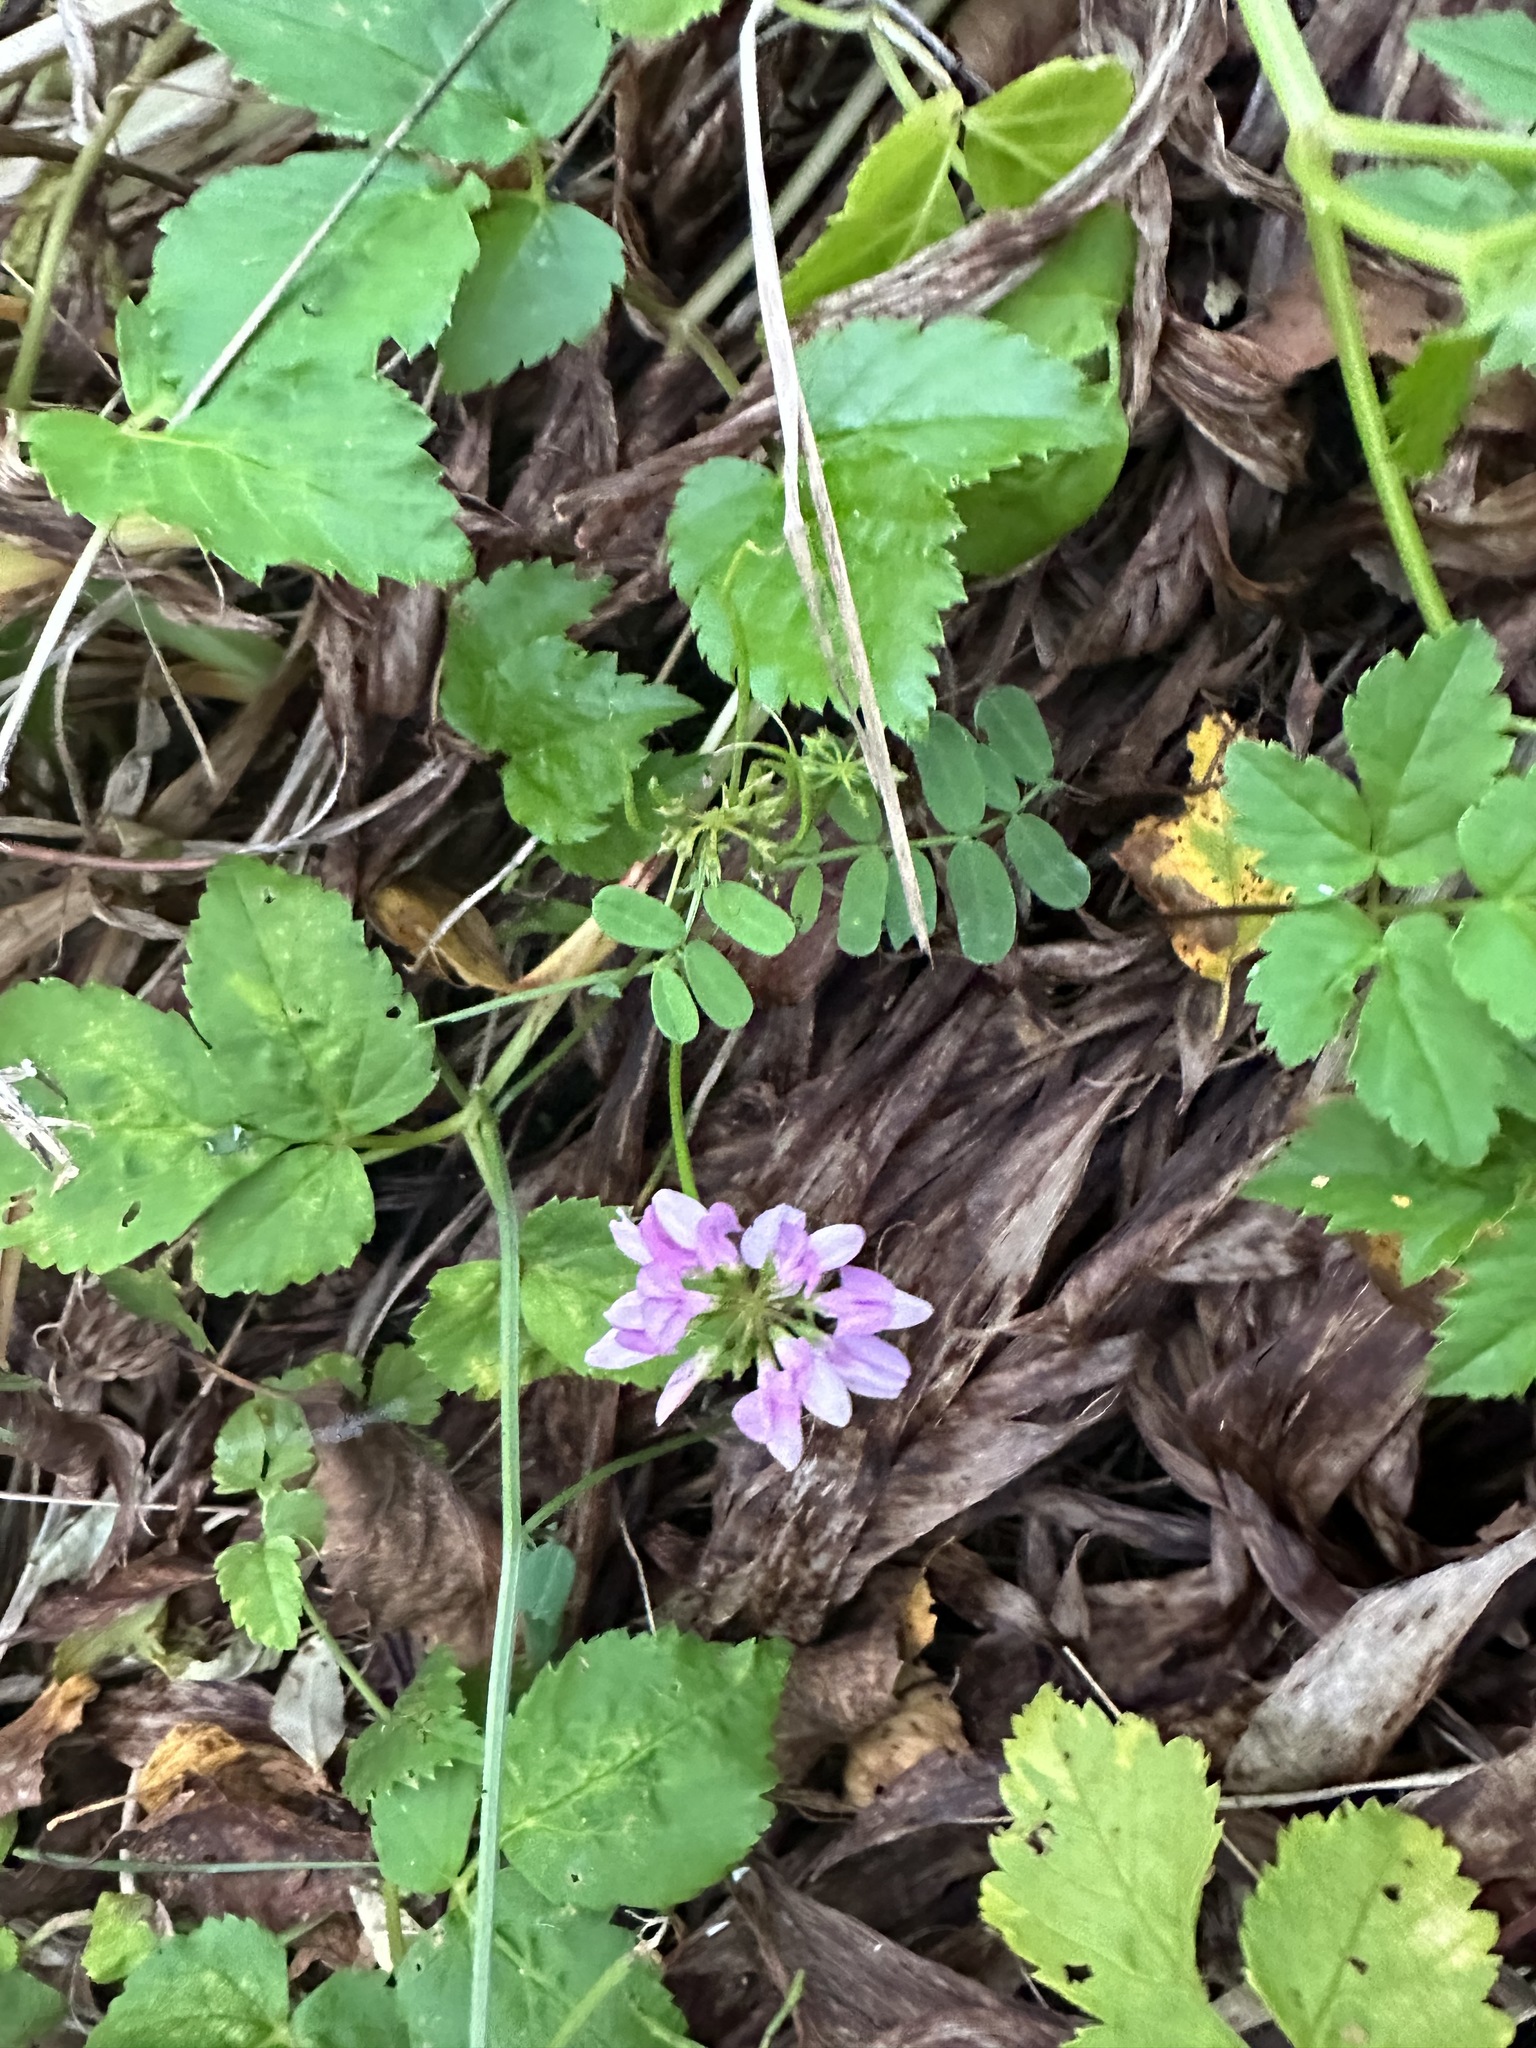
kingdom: Plantae
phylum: Tracheophyta
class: Magnoliopsida
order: Fabales
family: Fabaceae
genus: Coronilla
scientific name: Coronilla varia
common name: Crownvetch
